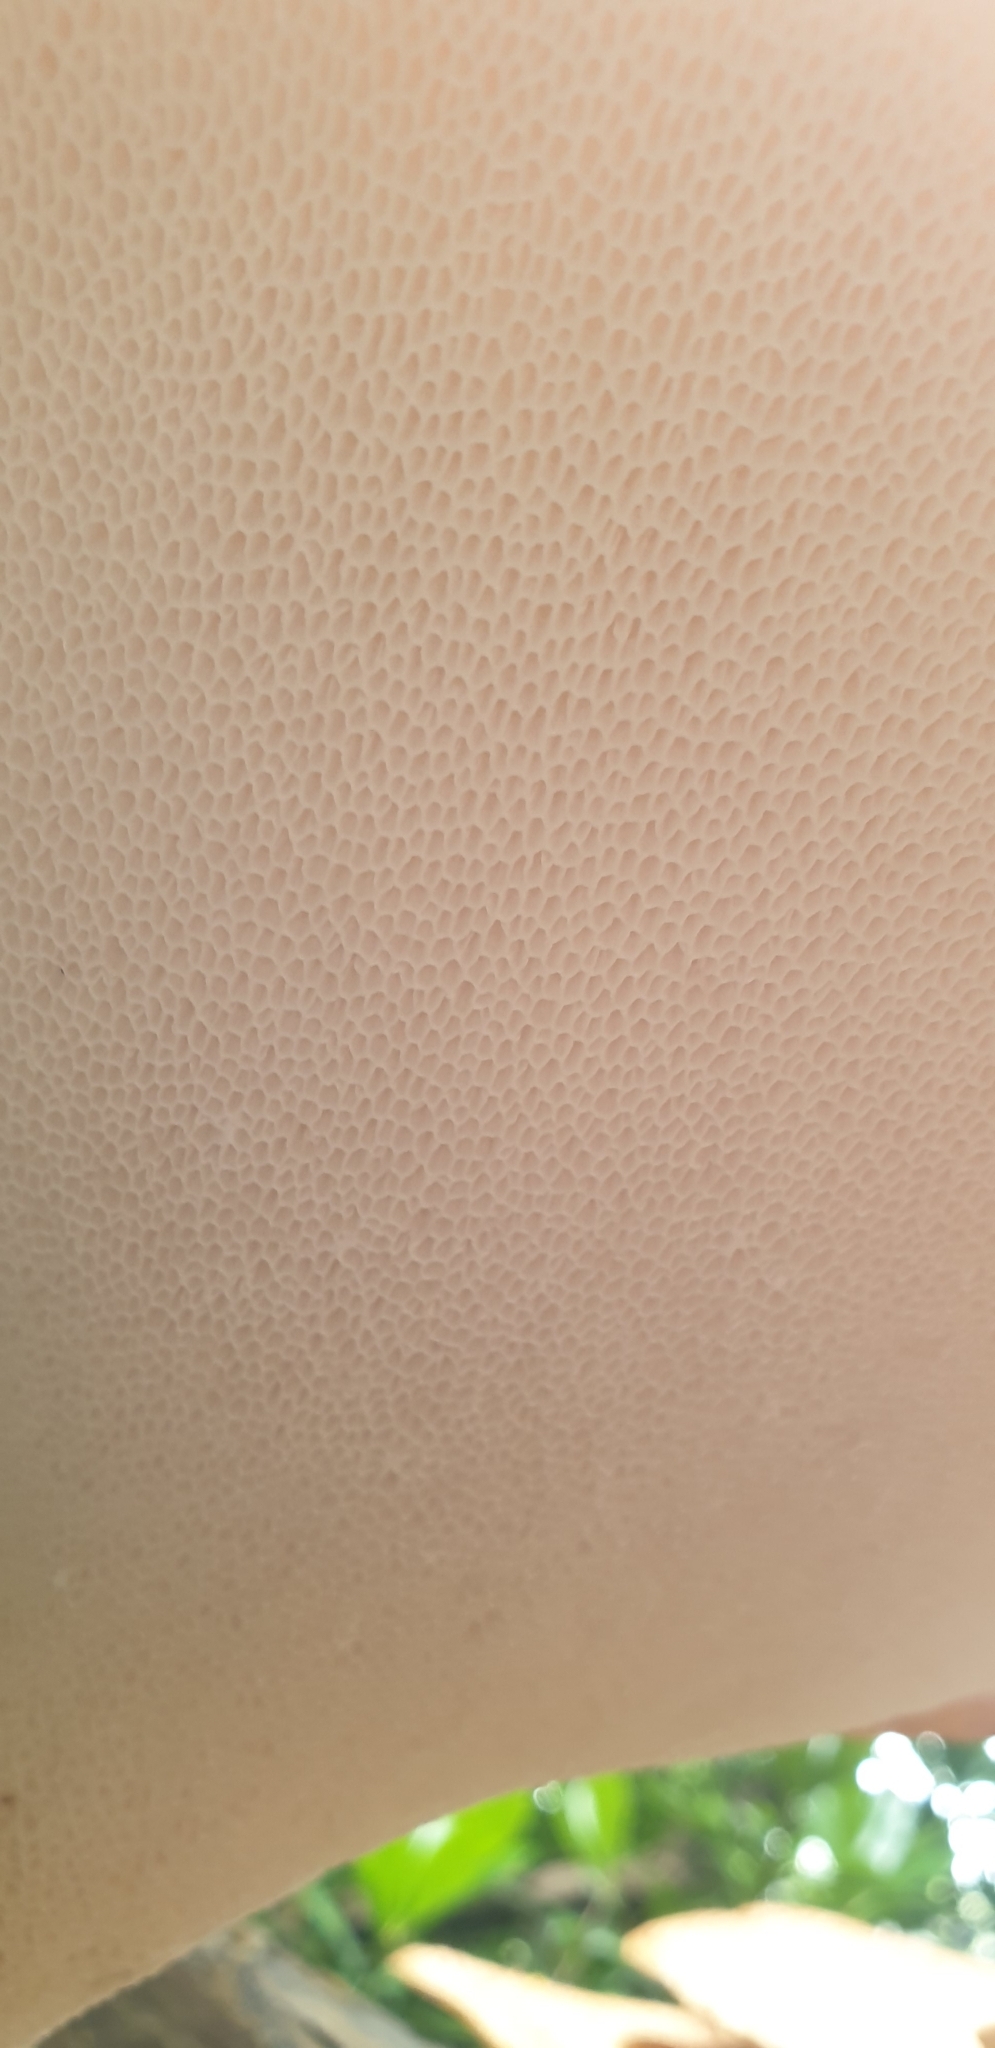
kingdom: Fungi
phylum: Basidiomycota
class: Agaricomycetes
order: Polyporales
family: Polyporaceae
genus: Cerioporus
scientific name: Cerioporus squamosus
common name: Dryad's saddle
